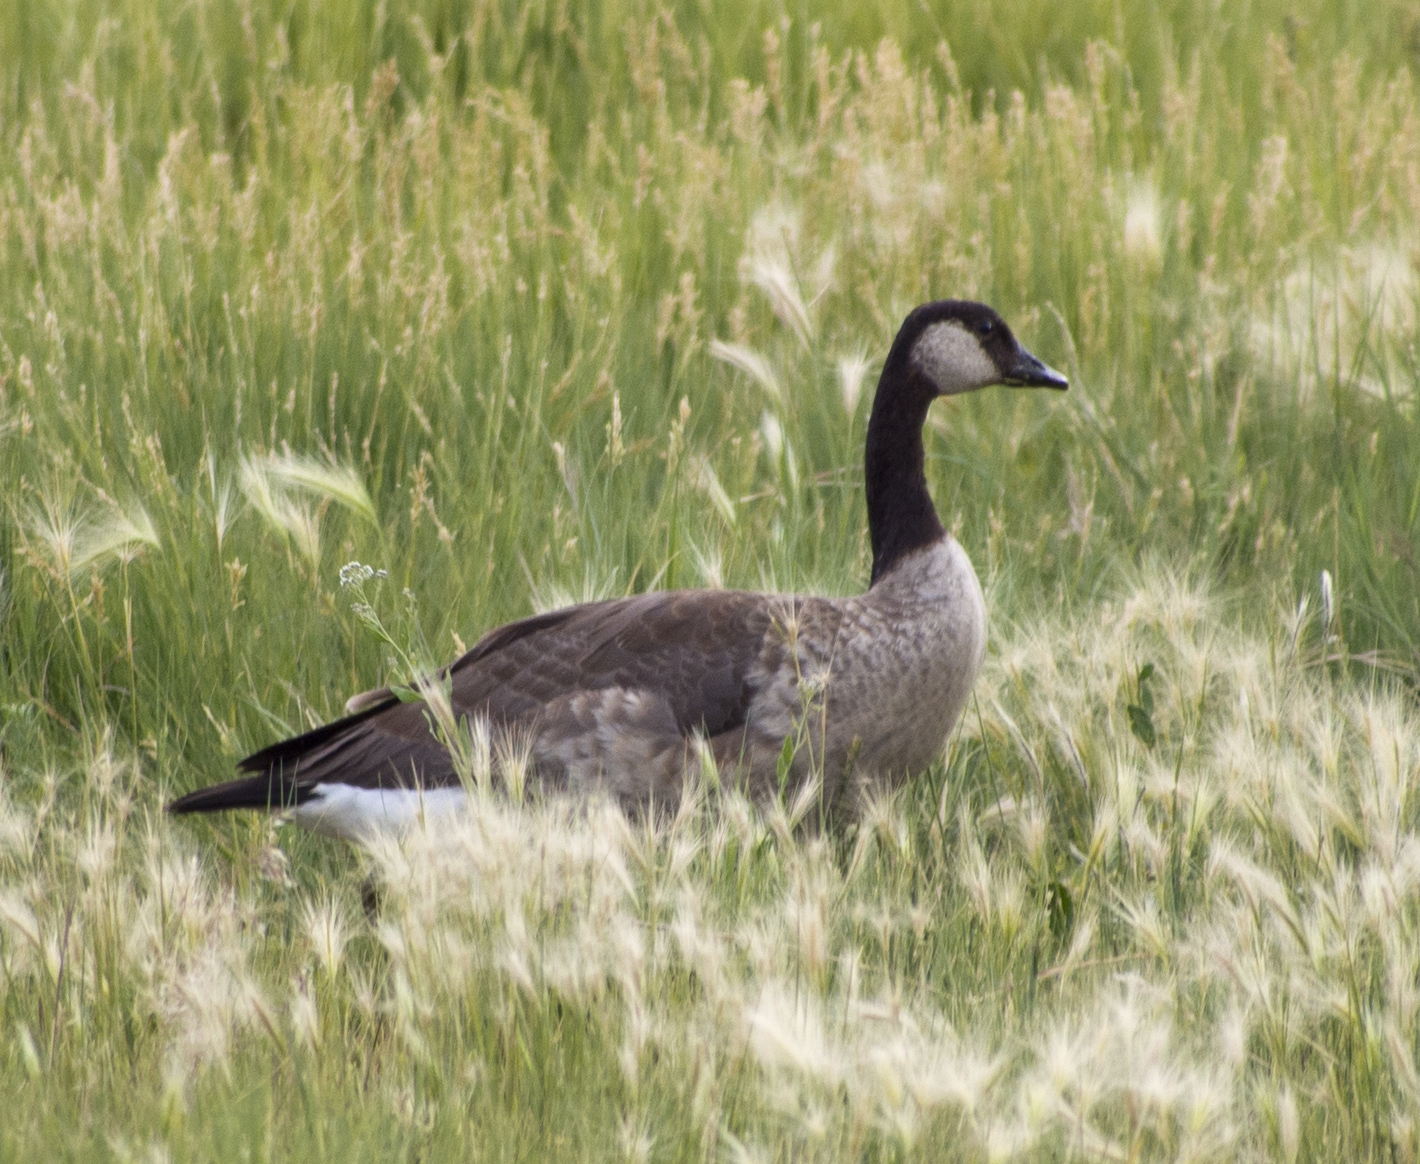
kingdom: Animalia
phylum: Chordata
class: Aves
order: Anseriformes
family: Anatidae
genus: Branta
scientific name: Branta canadensis
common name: Canada goose
